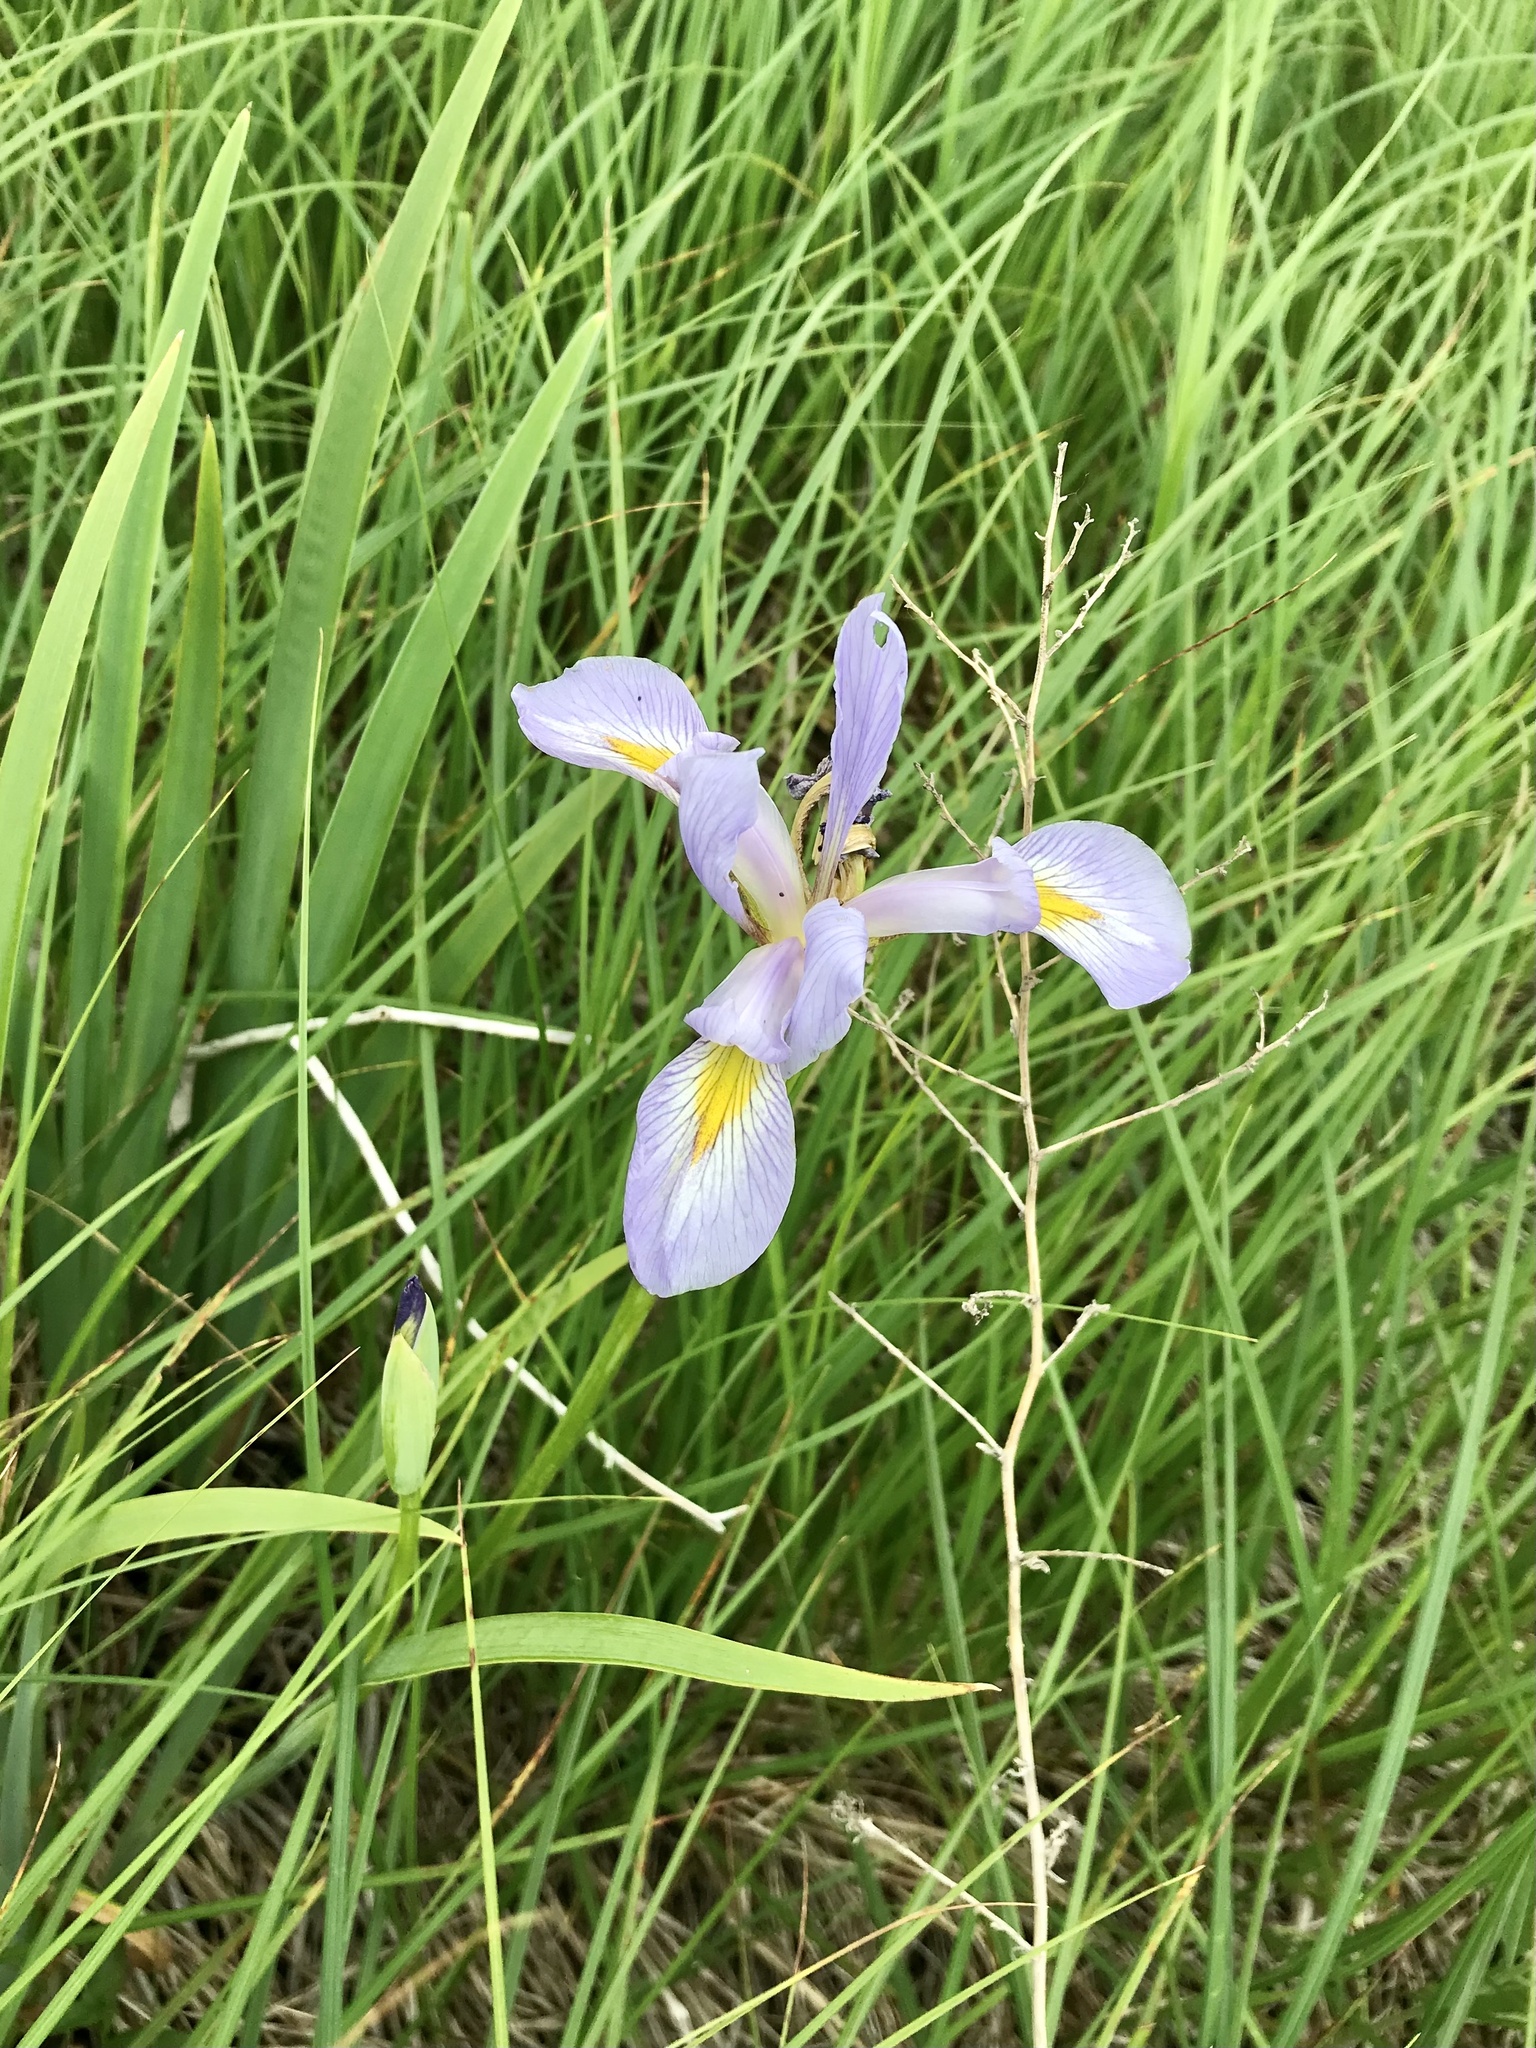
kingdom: Plantae
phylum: Tracheophyta
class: Liliopsida
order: Asparagales
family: Iridaceae
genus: Iris
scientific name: Iris virginica
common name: Southern blue flag
